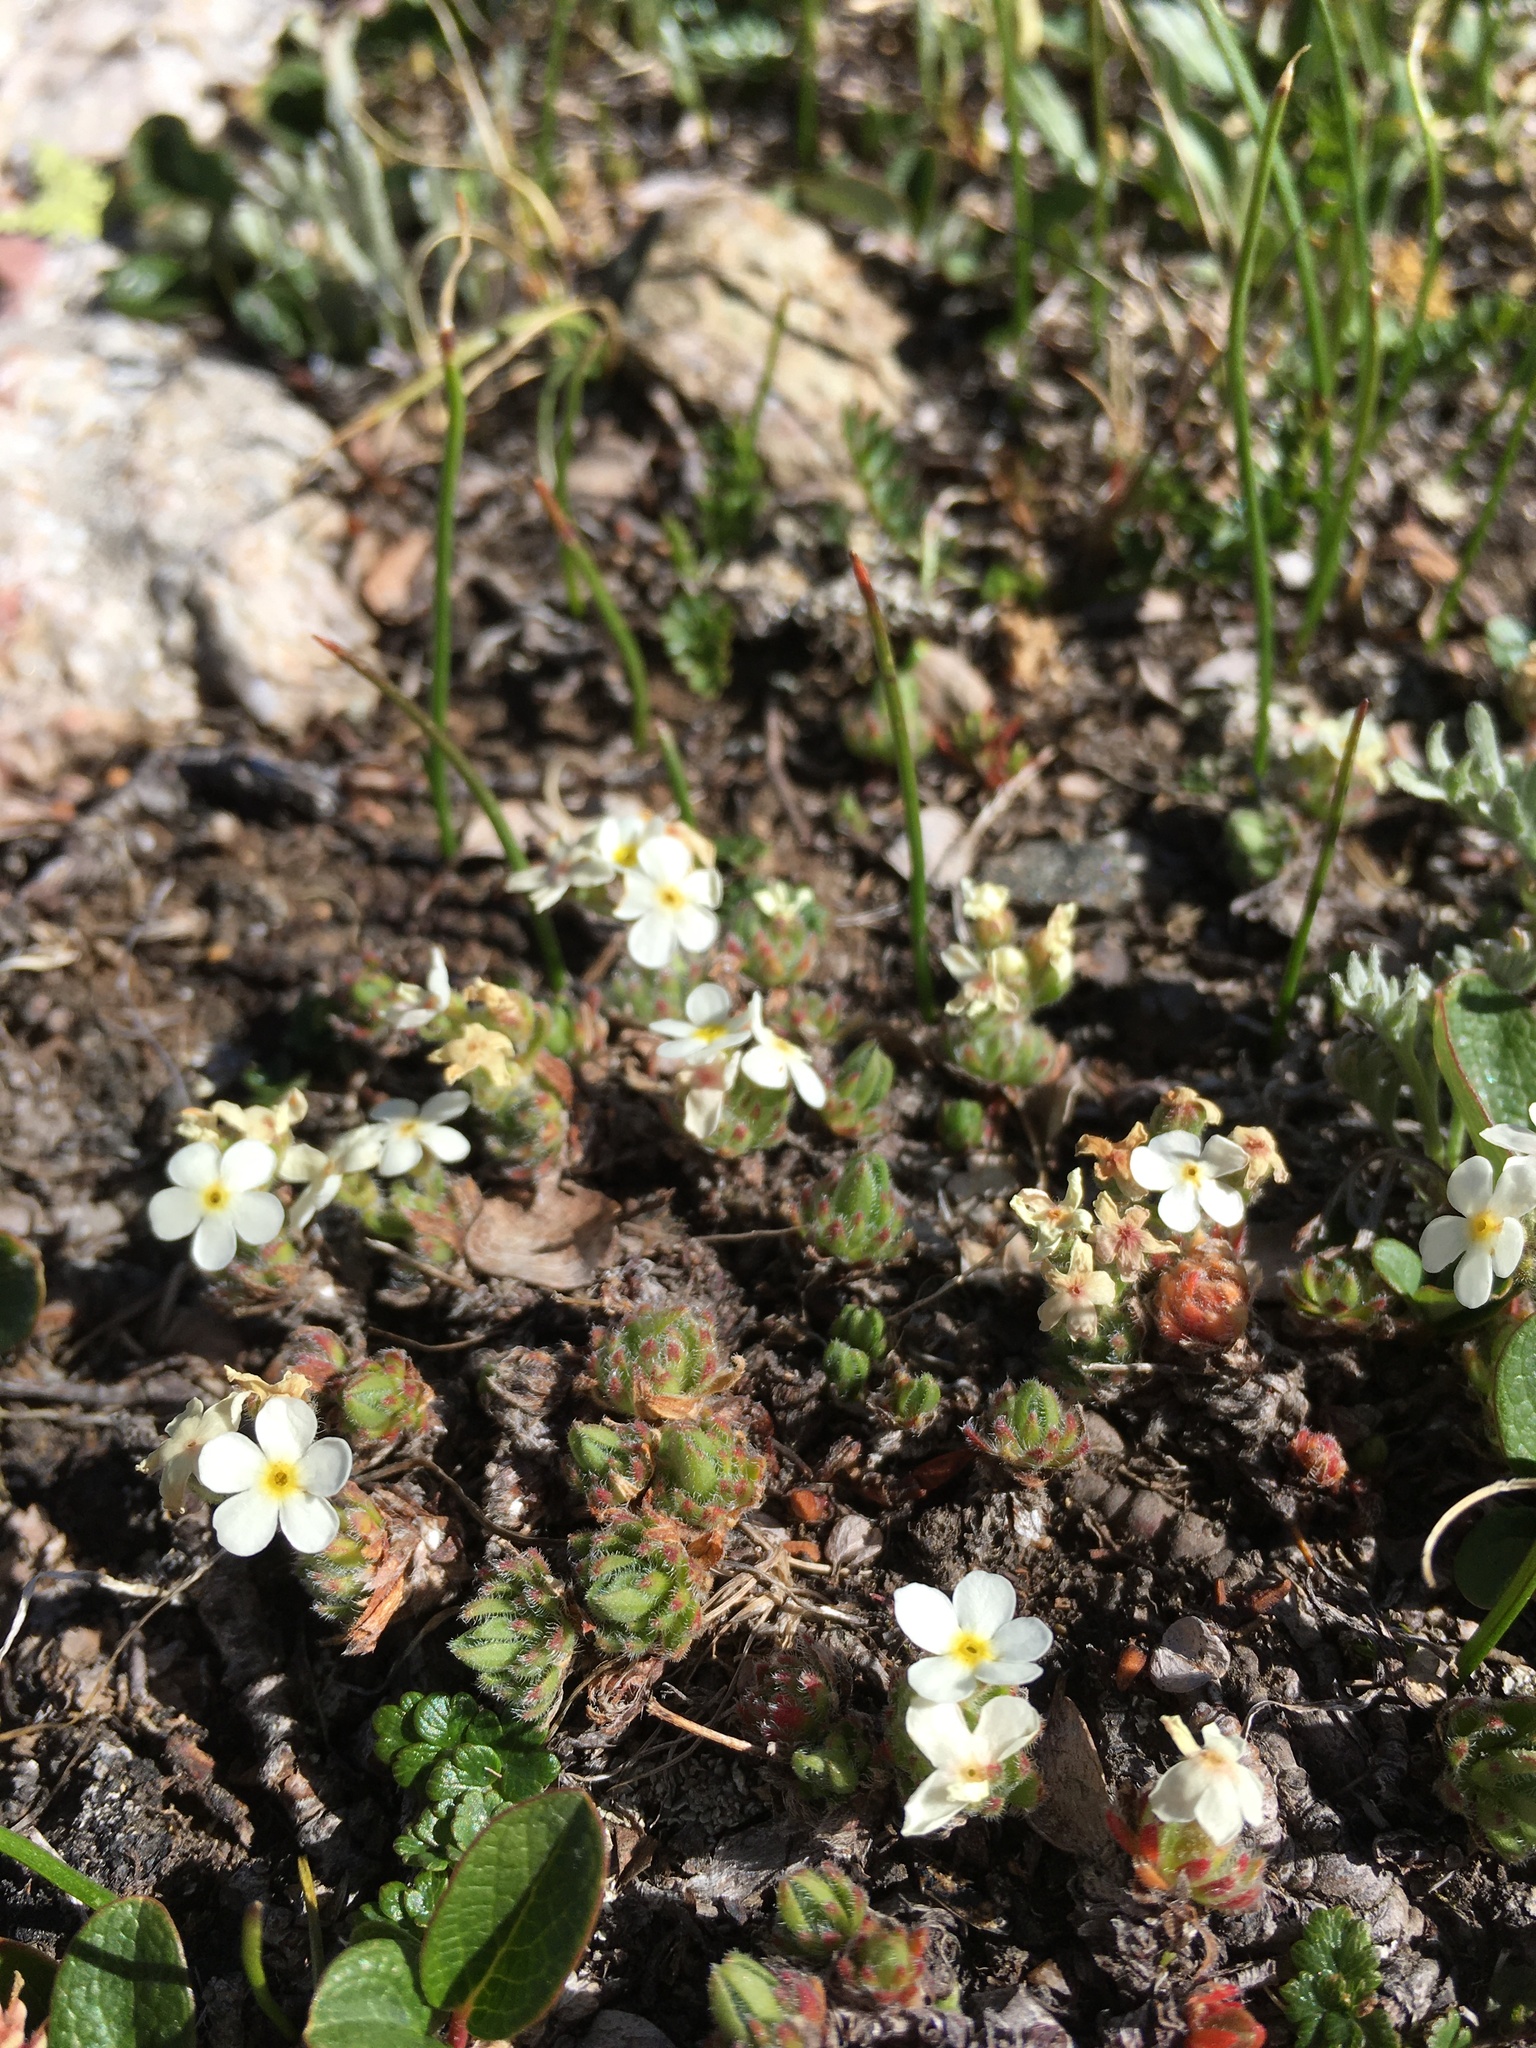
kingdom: Plantae
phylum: Tracheophyta
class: Magnoliopsida
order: Ericales
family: Primulaceae
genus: Androsace
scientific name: Androsace chamaejasme
